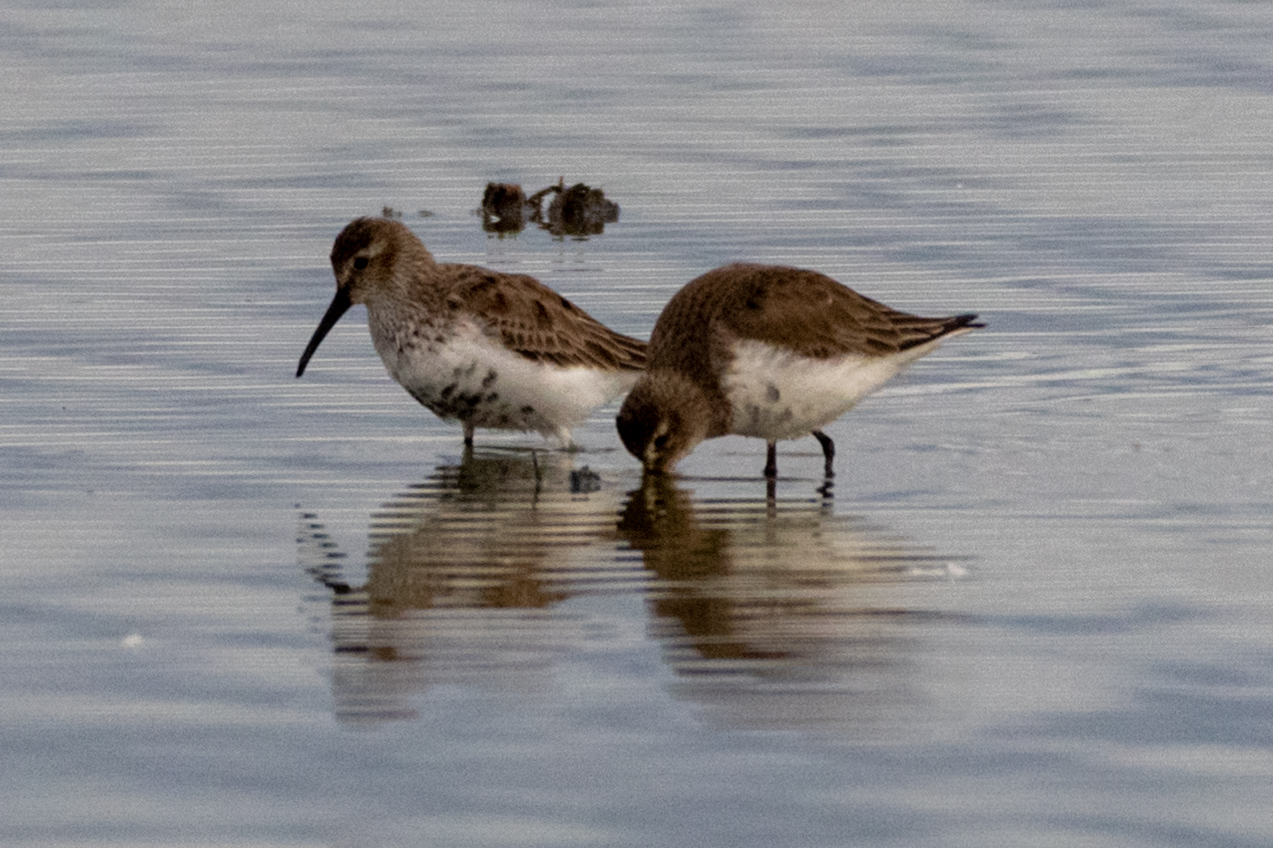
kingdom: Animalia
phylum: Chordata
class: Aves
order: Charadriiformes
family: Scolopacidae
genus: Calidris
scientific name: Calidris alpina
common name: Dunlin
